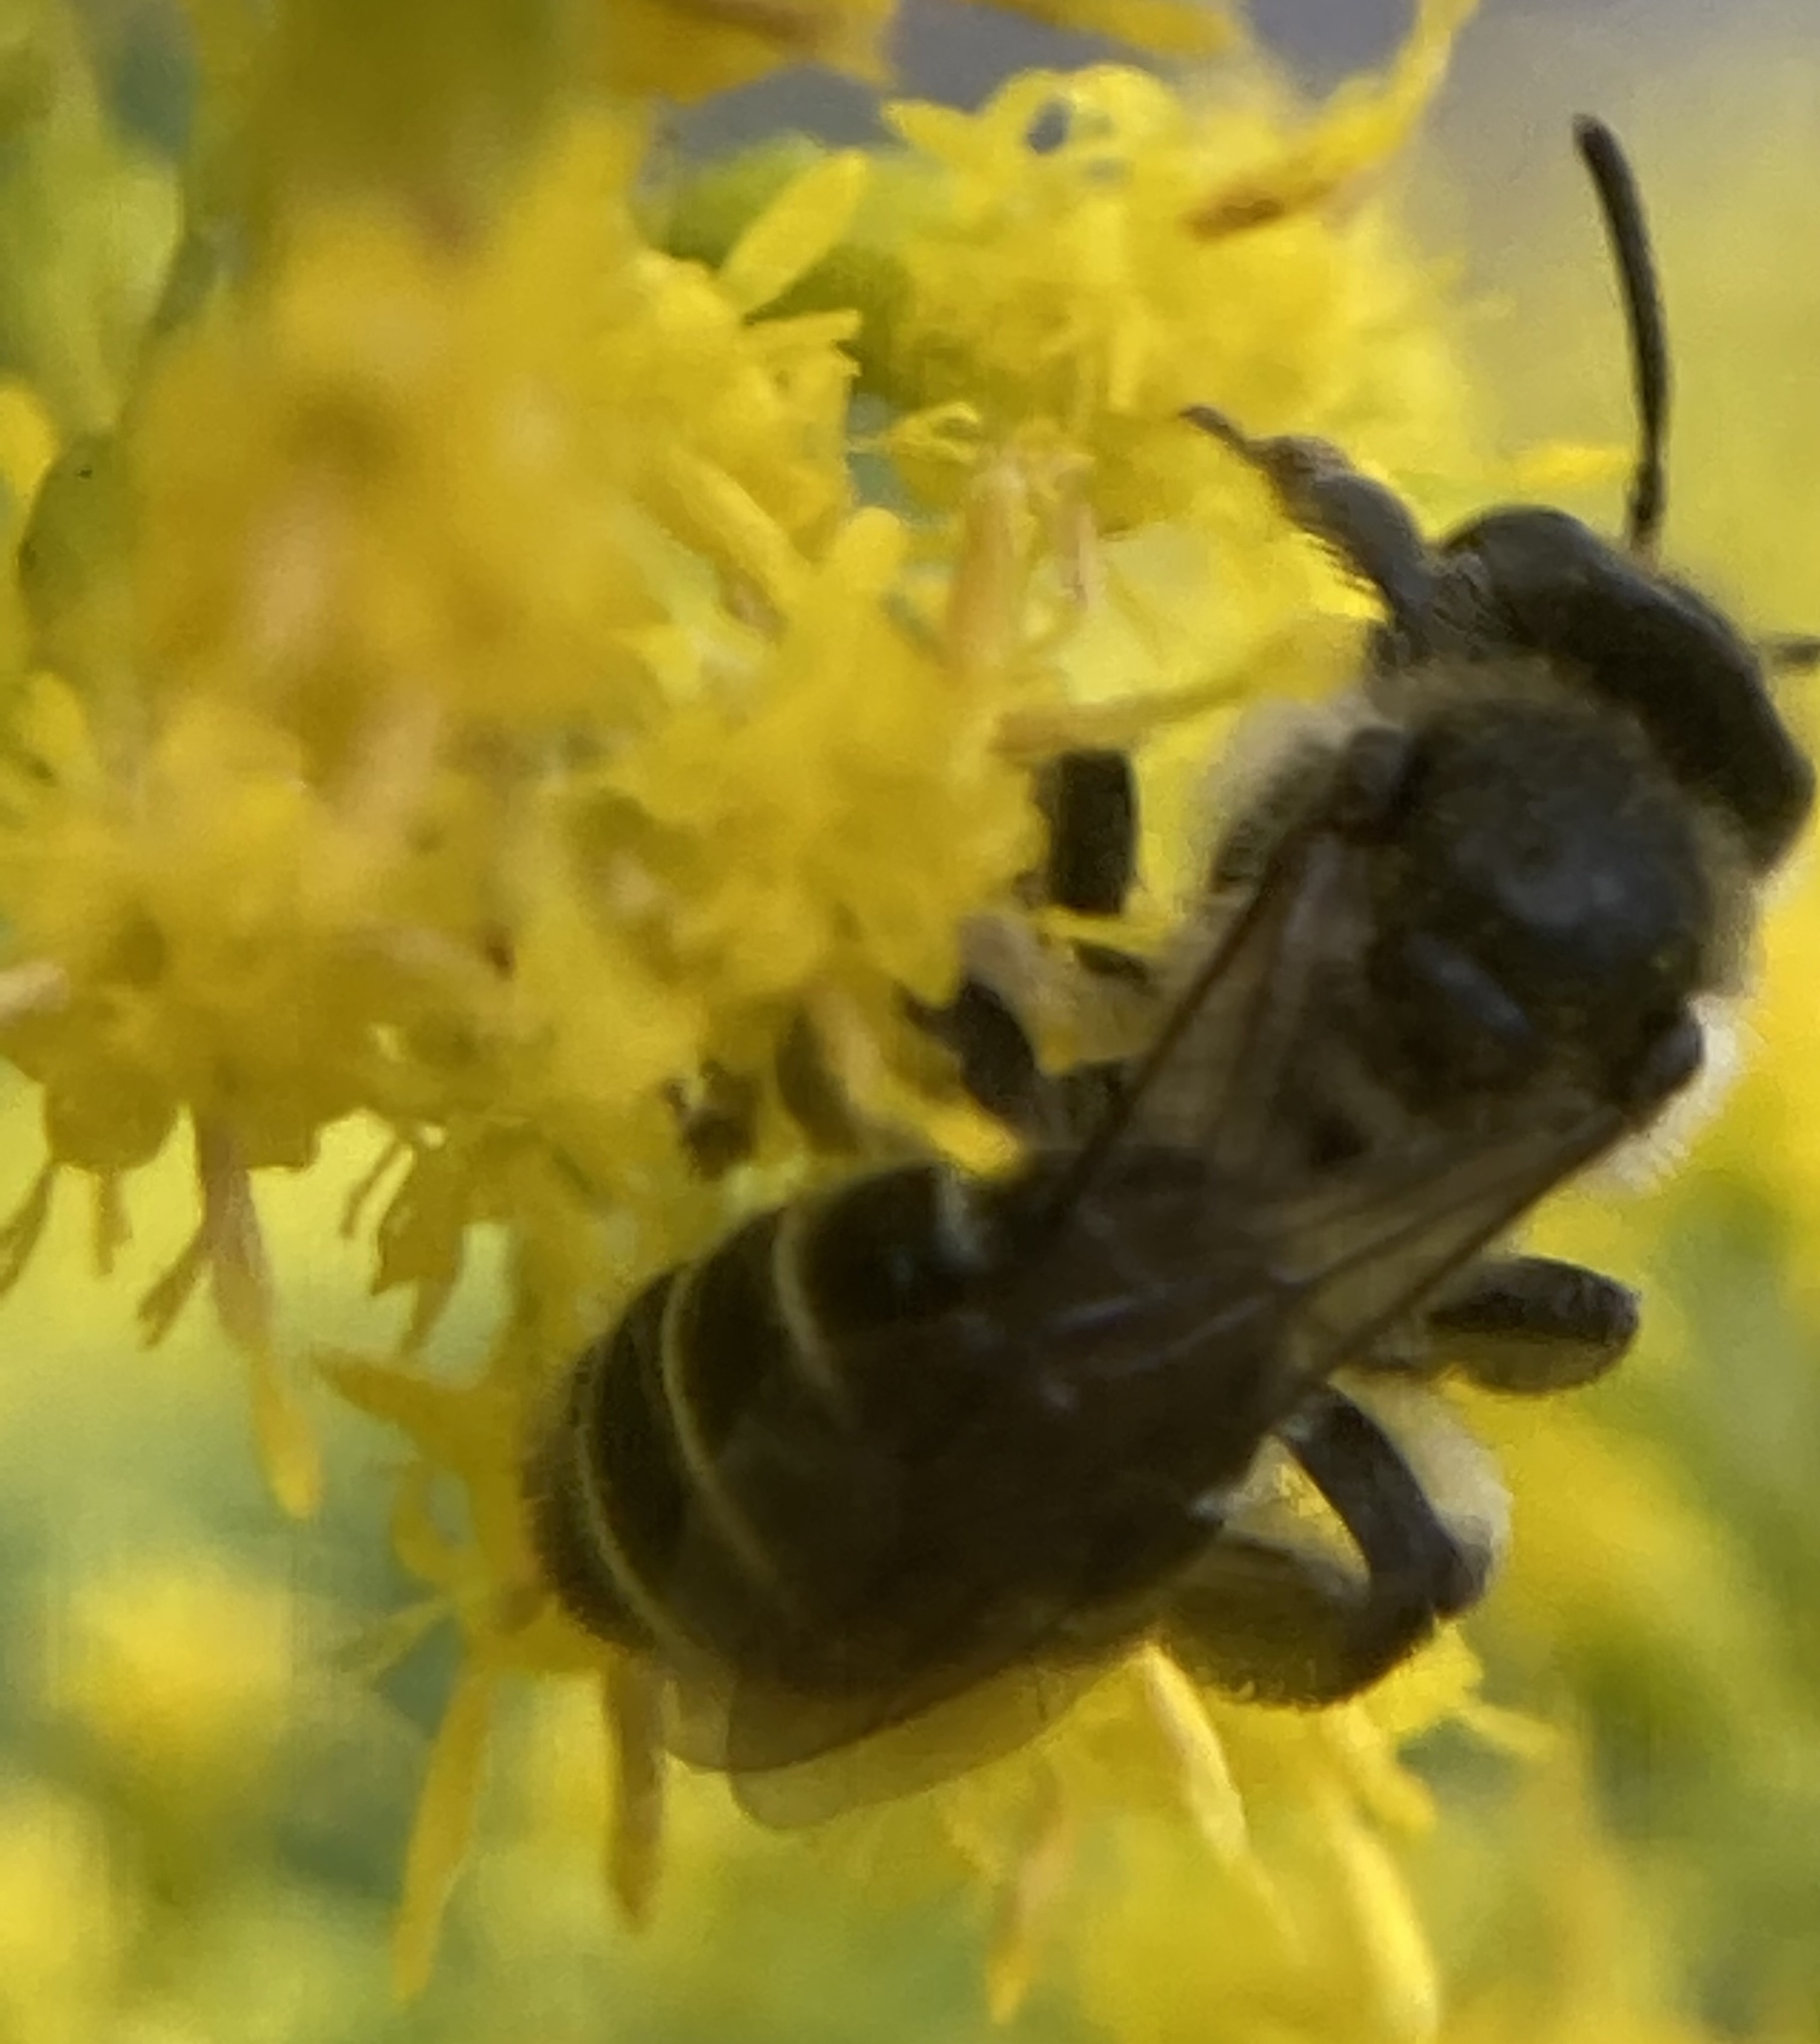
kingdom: Animalia
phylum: Arthropoda
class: Insecta
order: Hymenoptera
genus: Callandrena
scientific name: Callandrena
